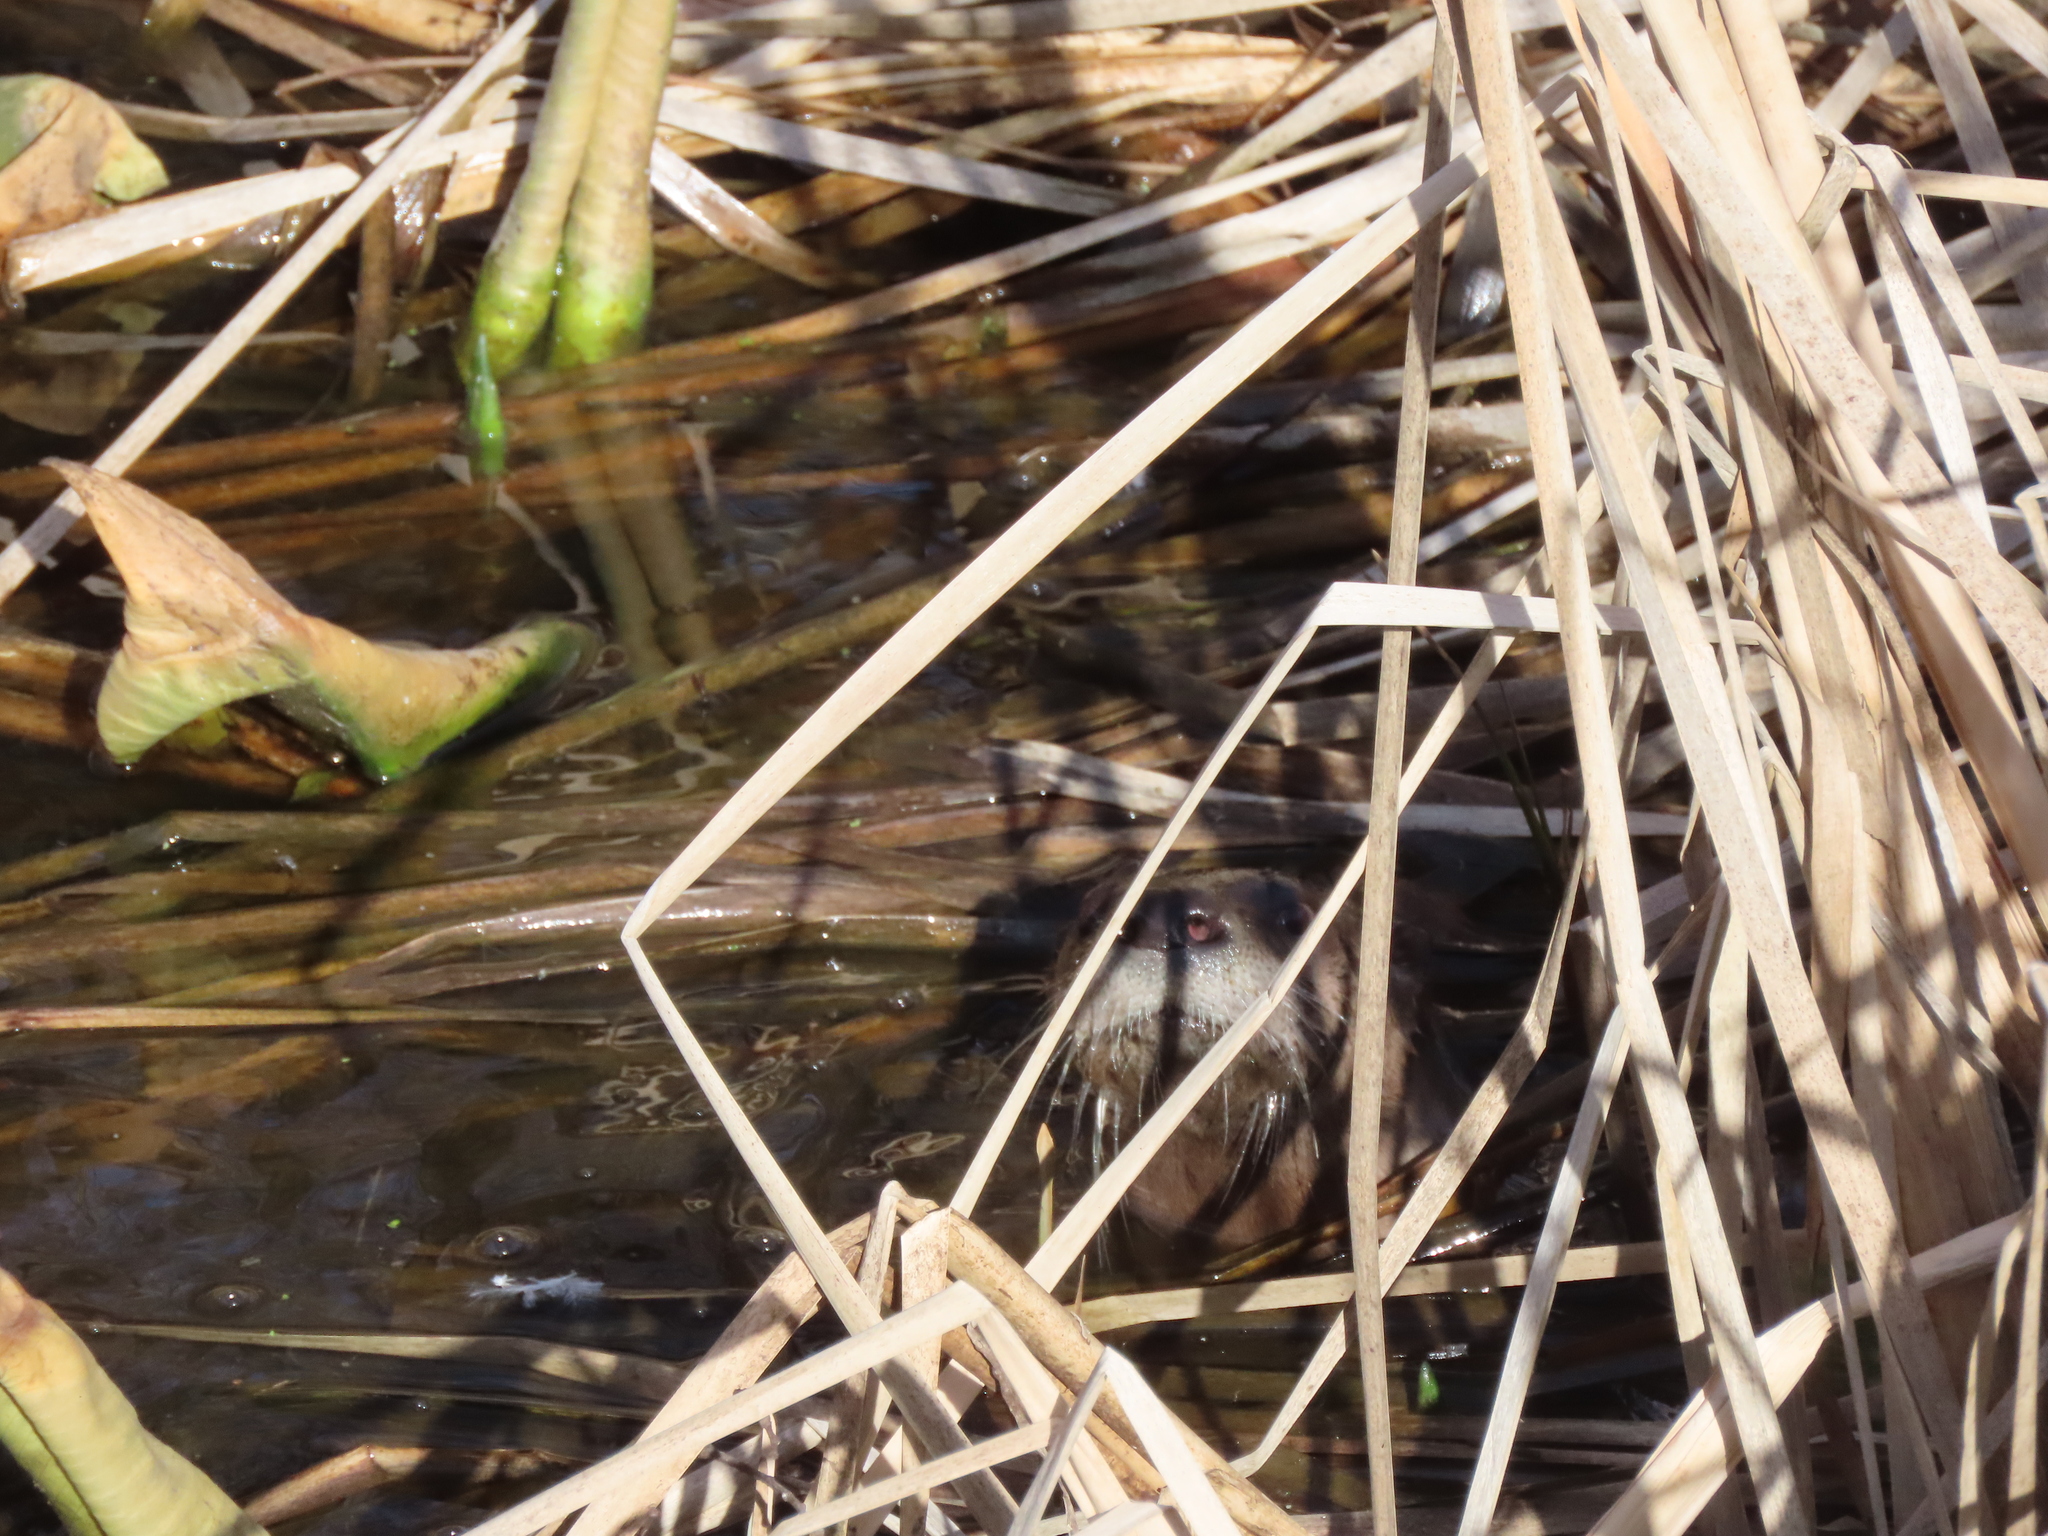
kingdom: Animalia
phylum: Chordata
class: Mammalia
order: Carnivora
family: Mustelidae
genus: Lontra
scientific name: Lontra canadensis
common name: North american river otter
